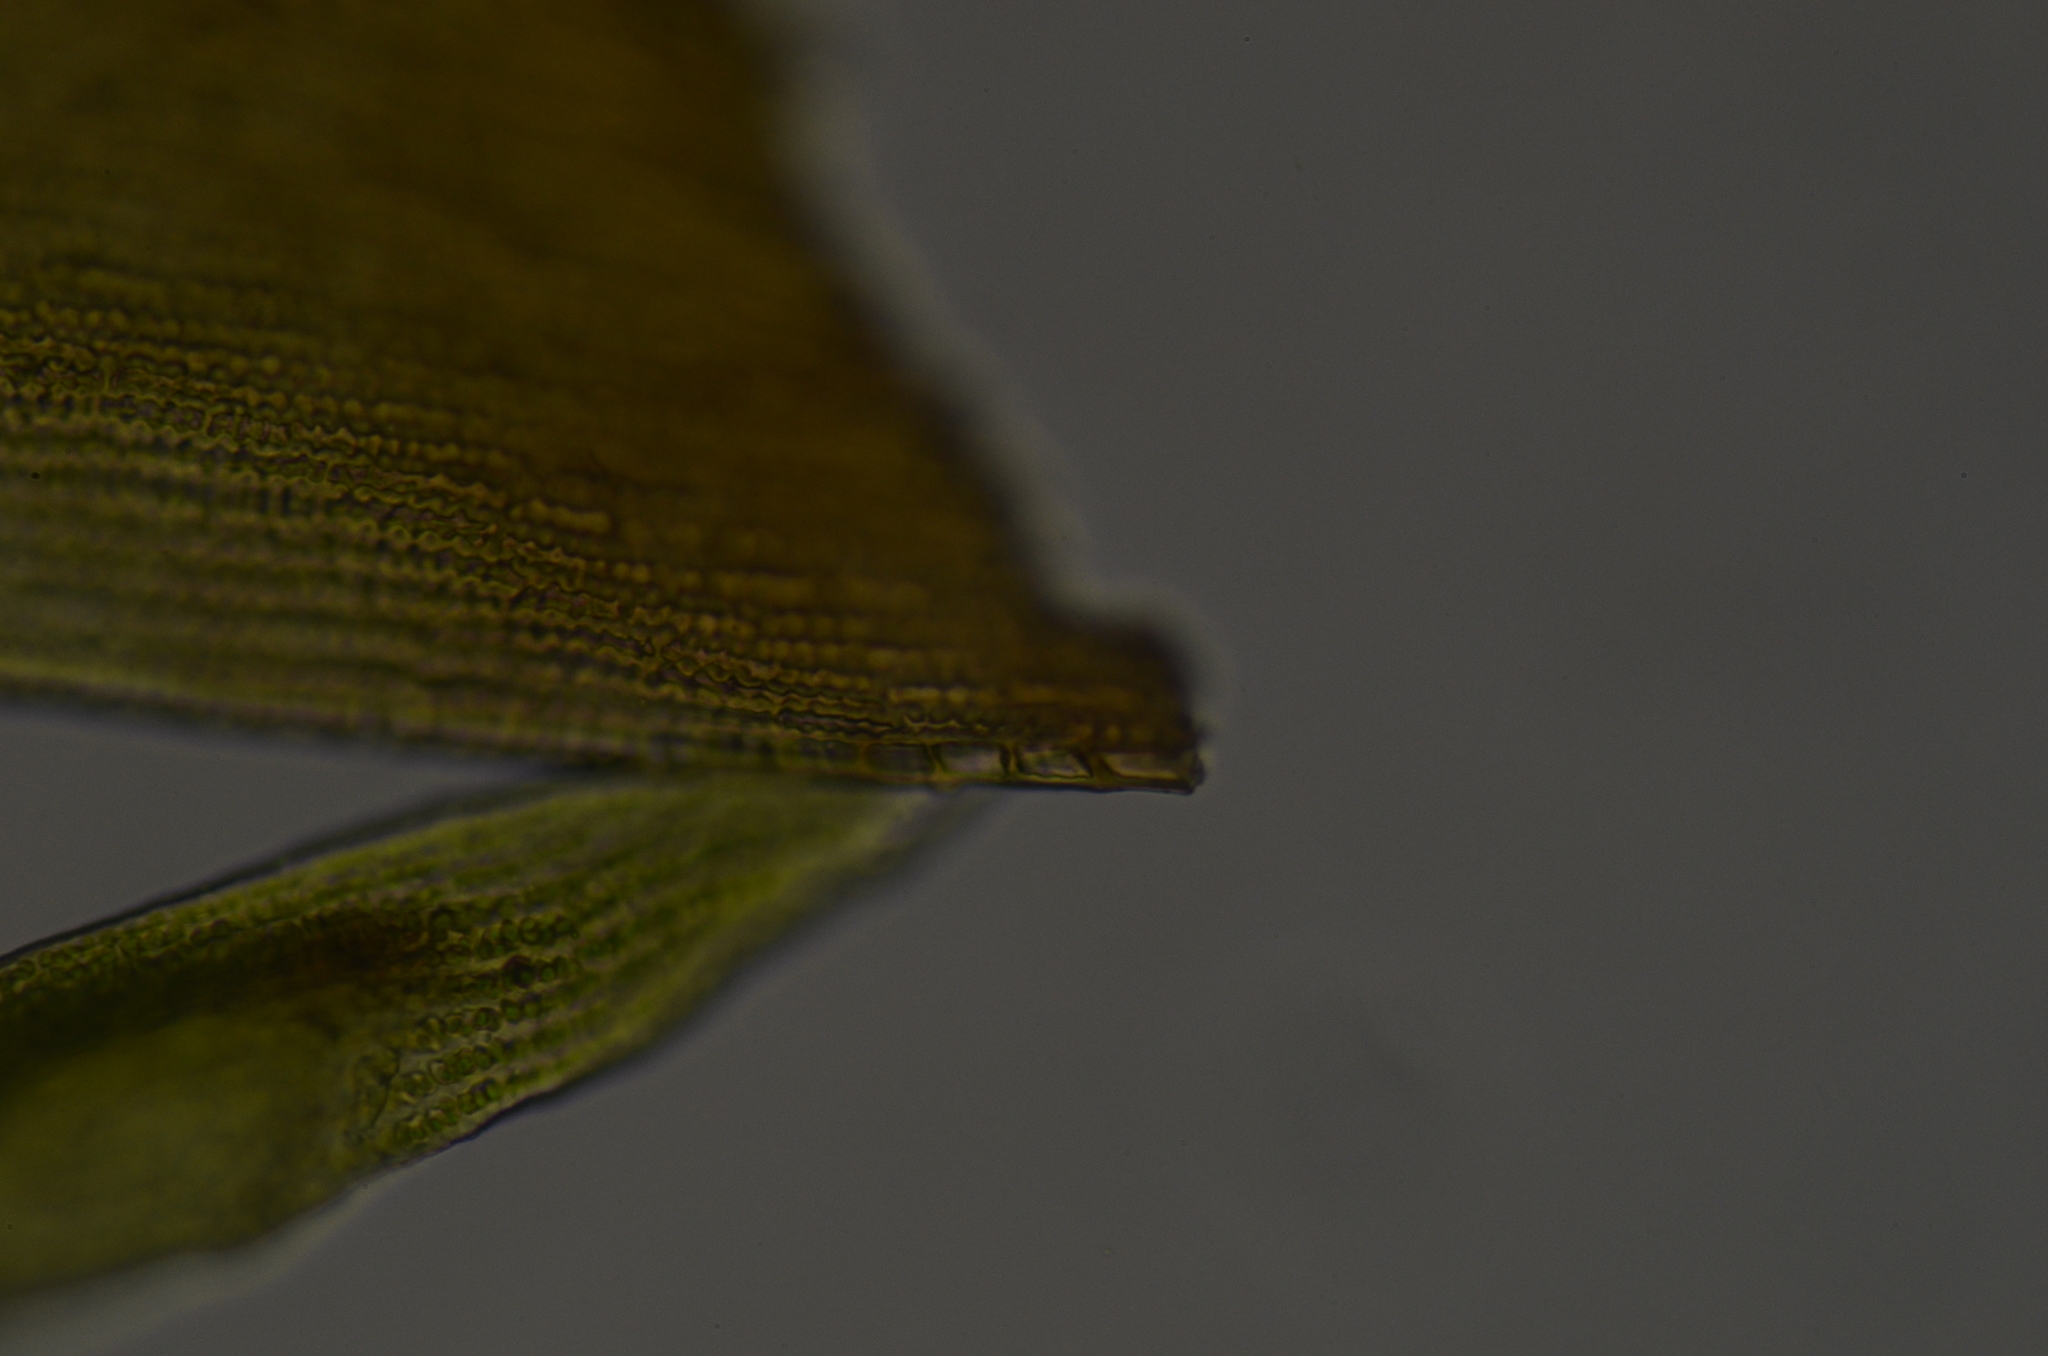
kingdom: Plantae
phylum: Bryophyta
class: Bryopsida
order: Grimmiales
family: Grimmiaceae
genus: Bucklandiella
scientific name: Bucklandiella heterosticha
